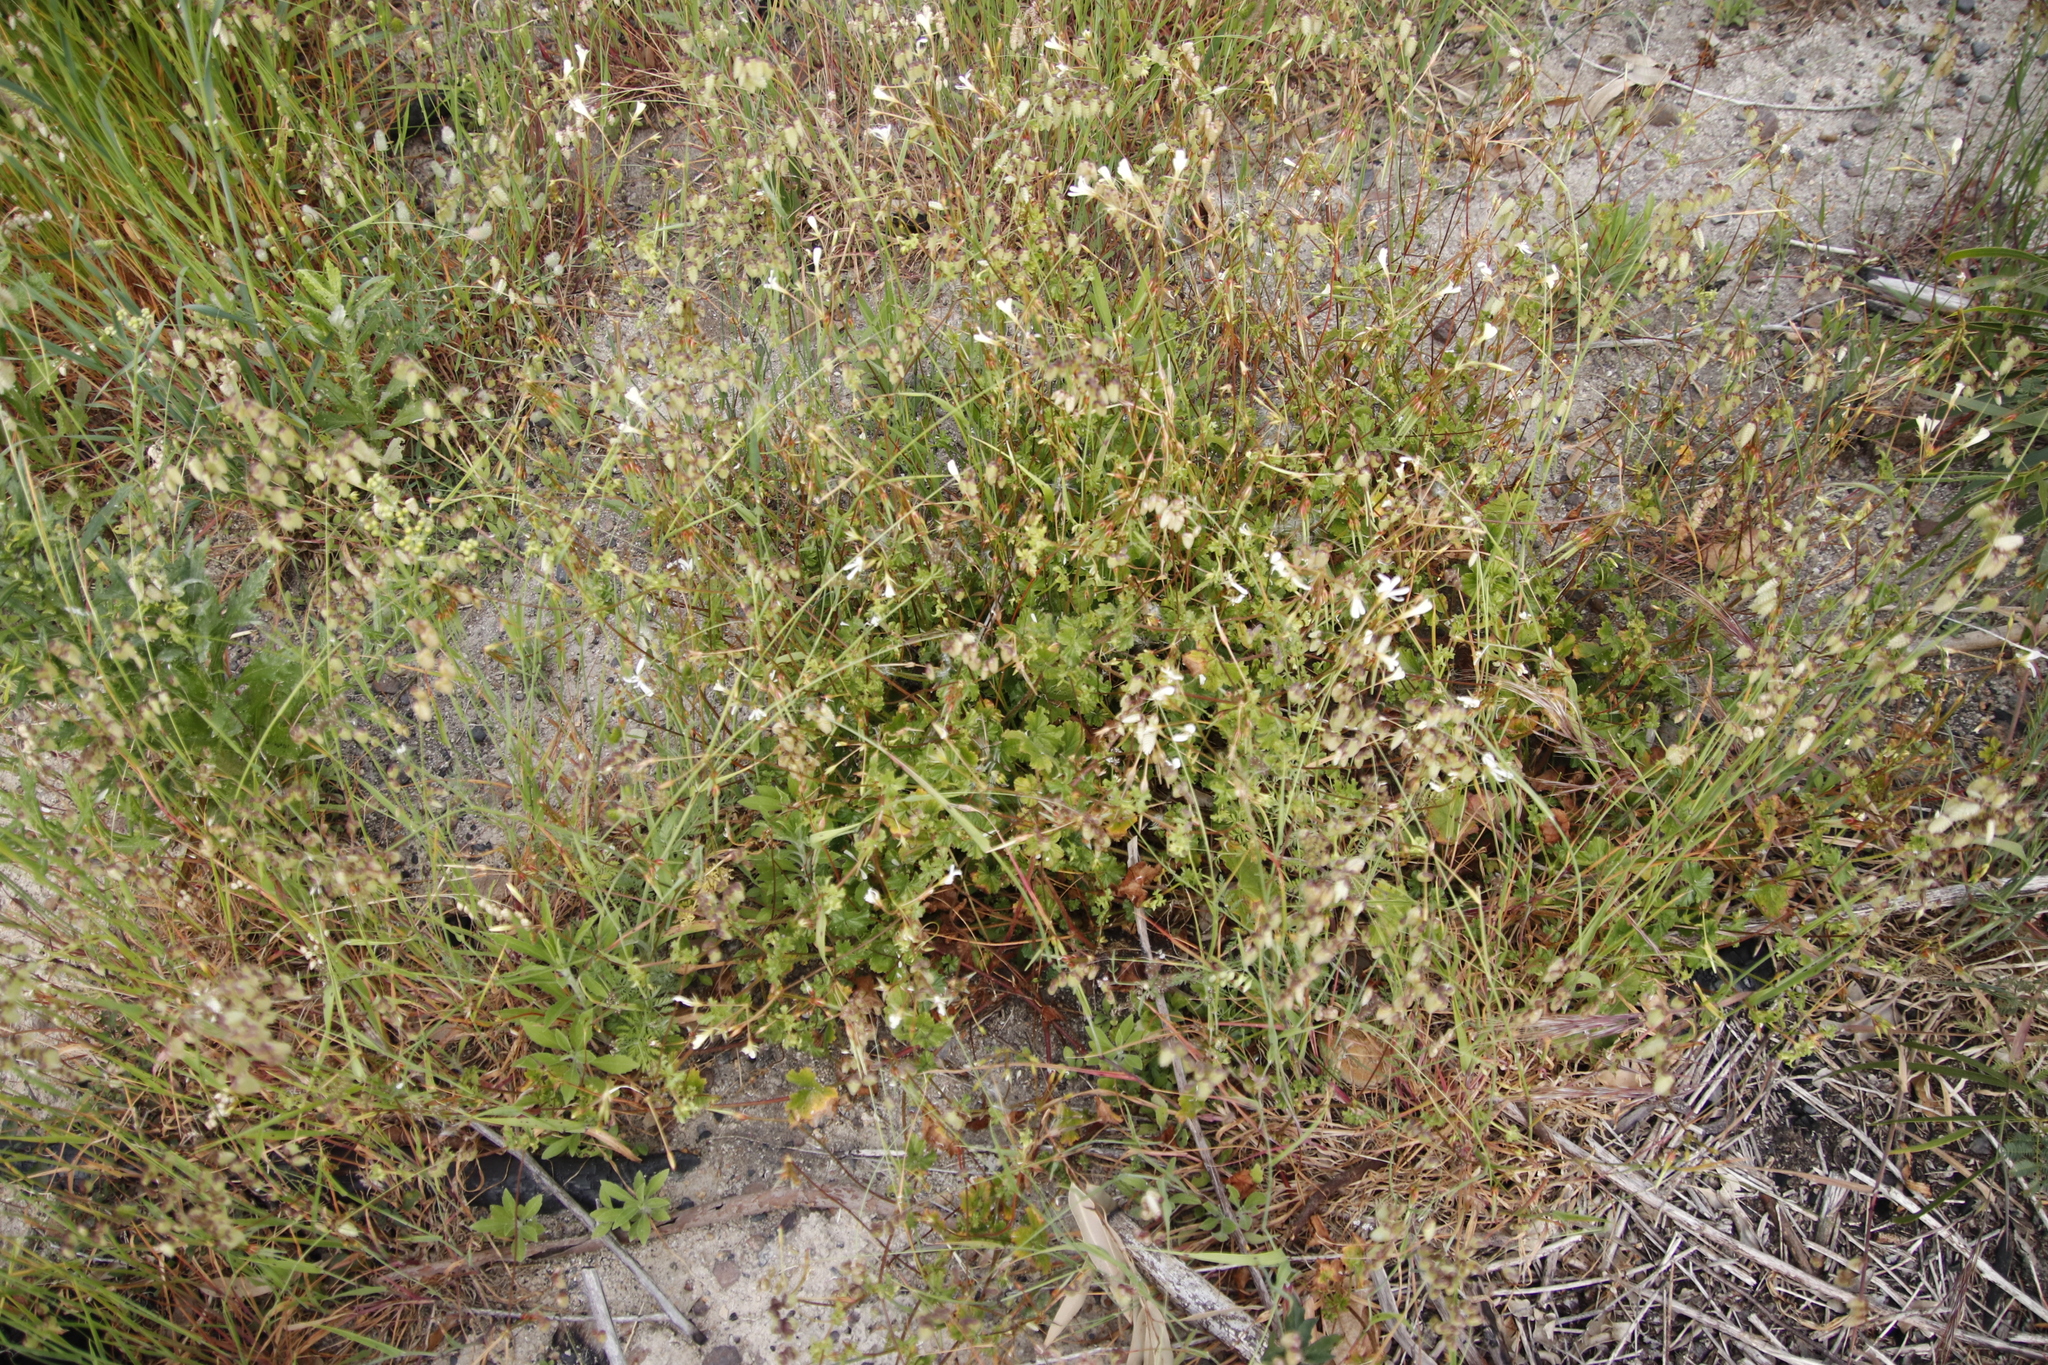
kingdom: Plantae
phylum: Tracheophyta
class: Magnoliopsida
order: Geraniales
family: Geraniaceae
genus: Pelargonium
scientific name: Pelargonium elongatum
